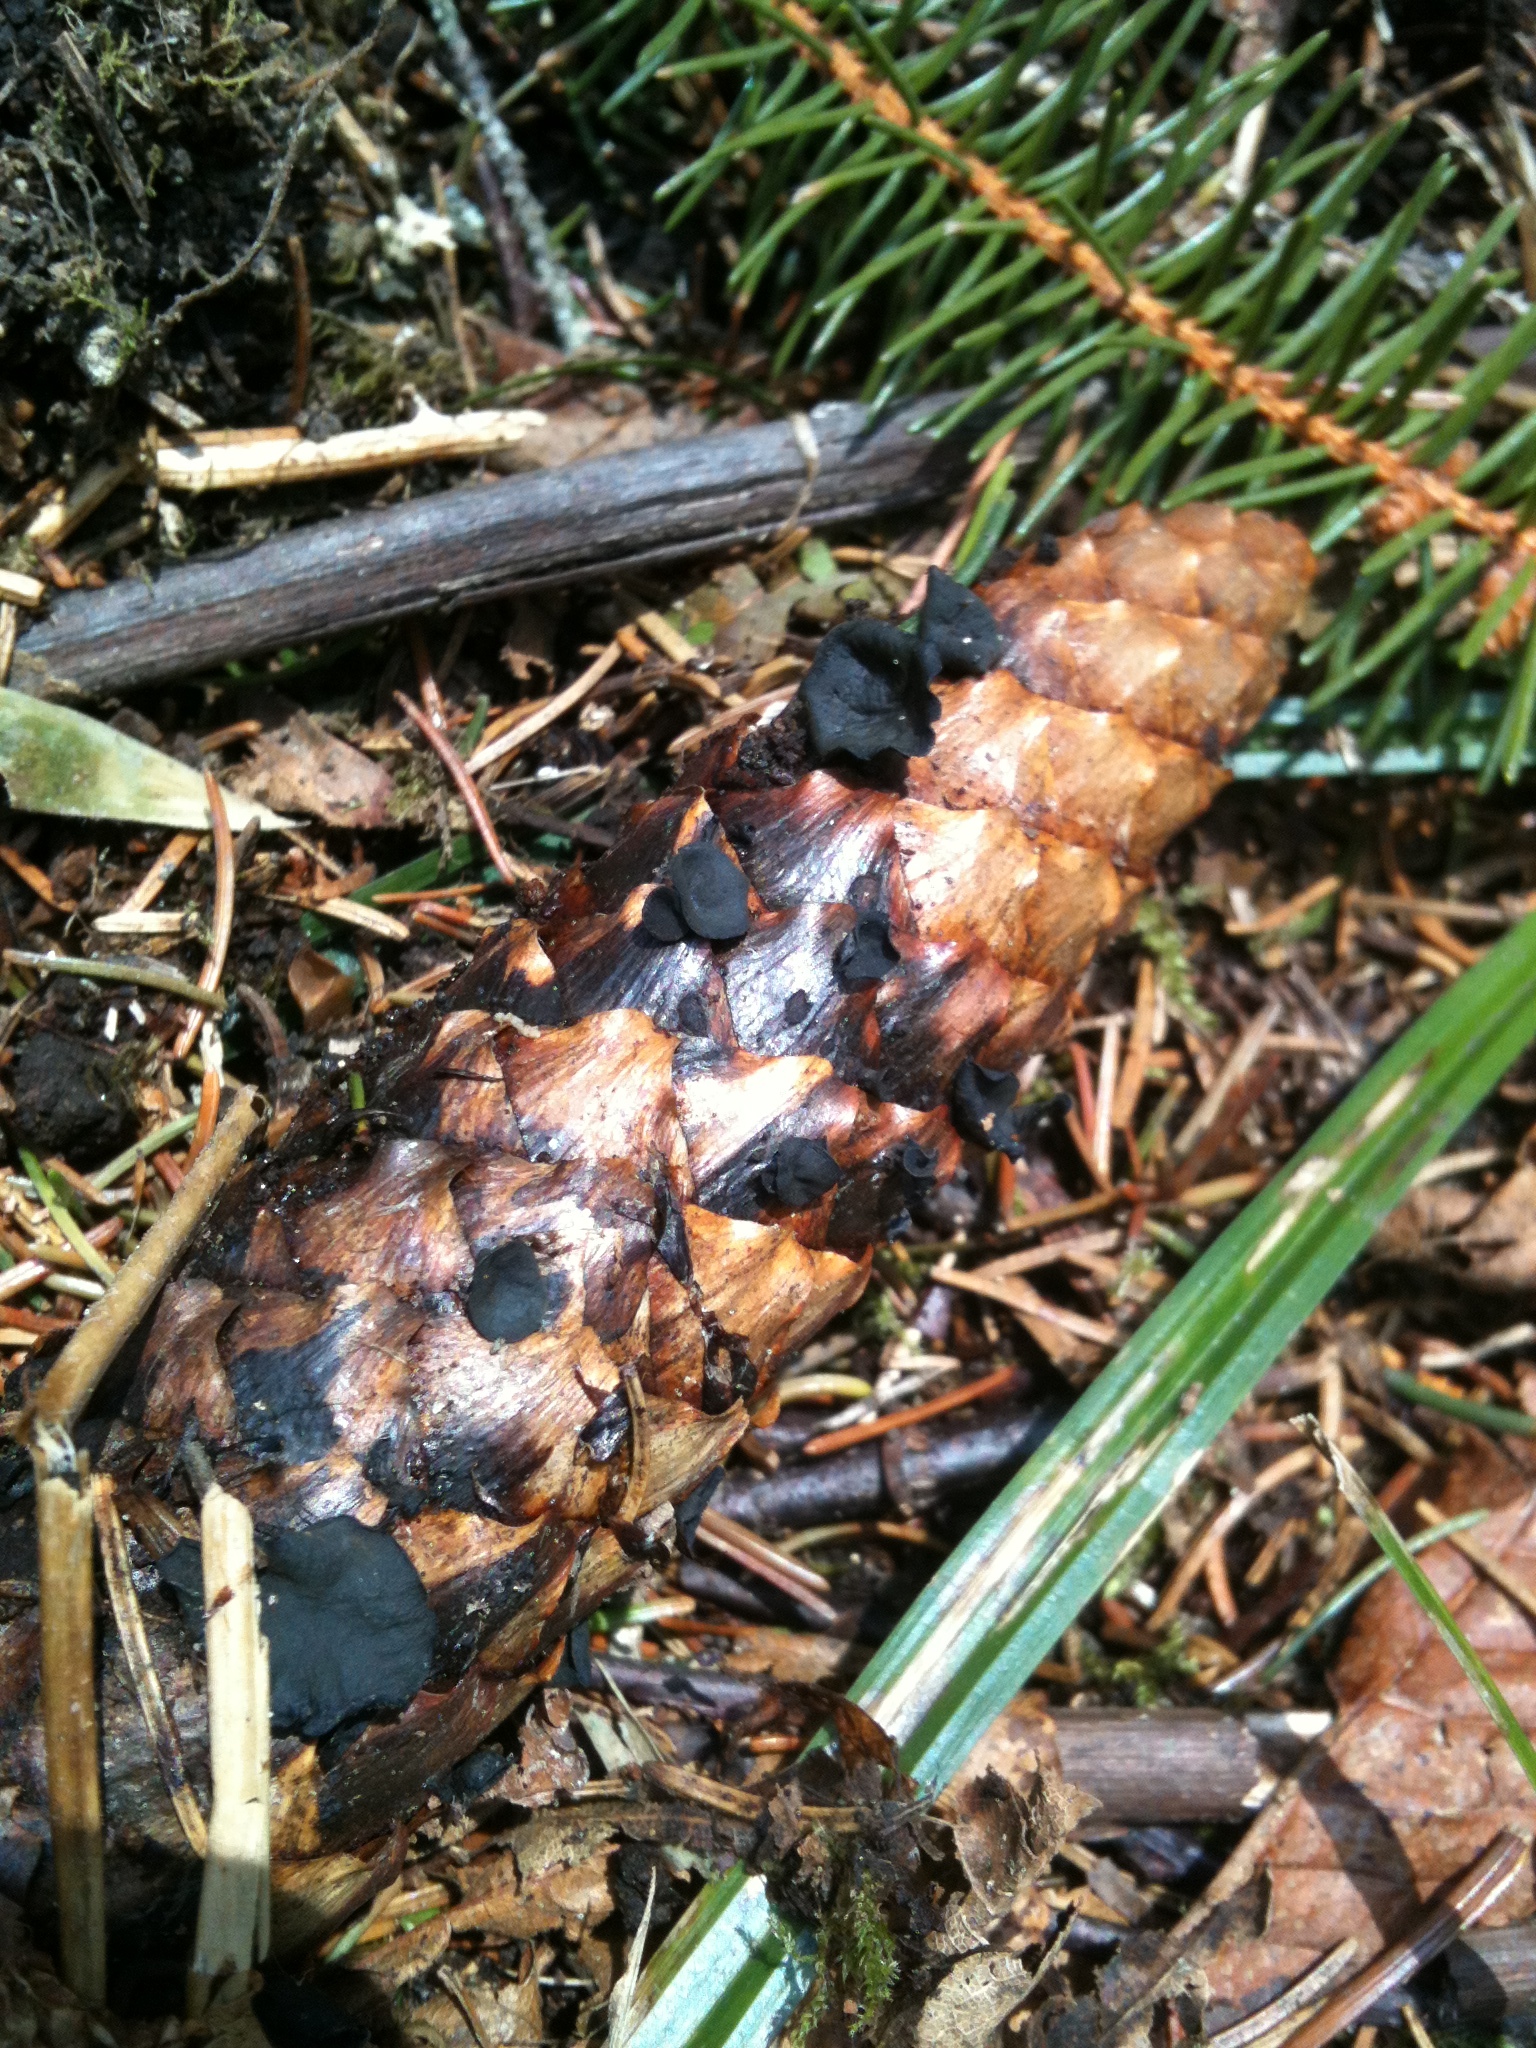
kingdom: Fungi
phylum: Ascomycota
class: Leotiomycetes
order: Helotiales
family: Rutstroemiaceae
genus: Rutstroemia
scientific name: Rutstroemia bulgarioides
